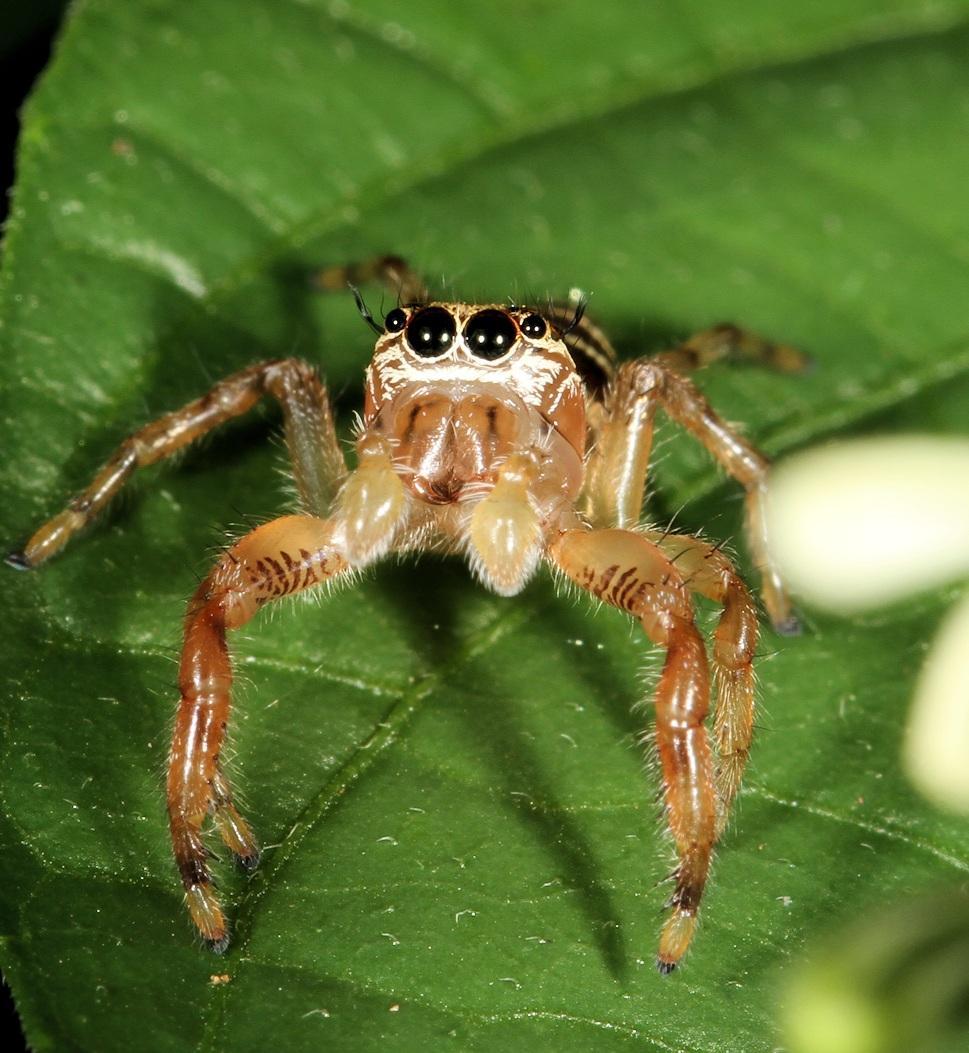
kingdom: Animalia
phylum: Arthropoda
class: Arachnida
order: Araneae
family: Salticidae
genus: Thyene
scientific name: Thyene natalii
